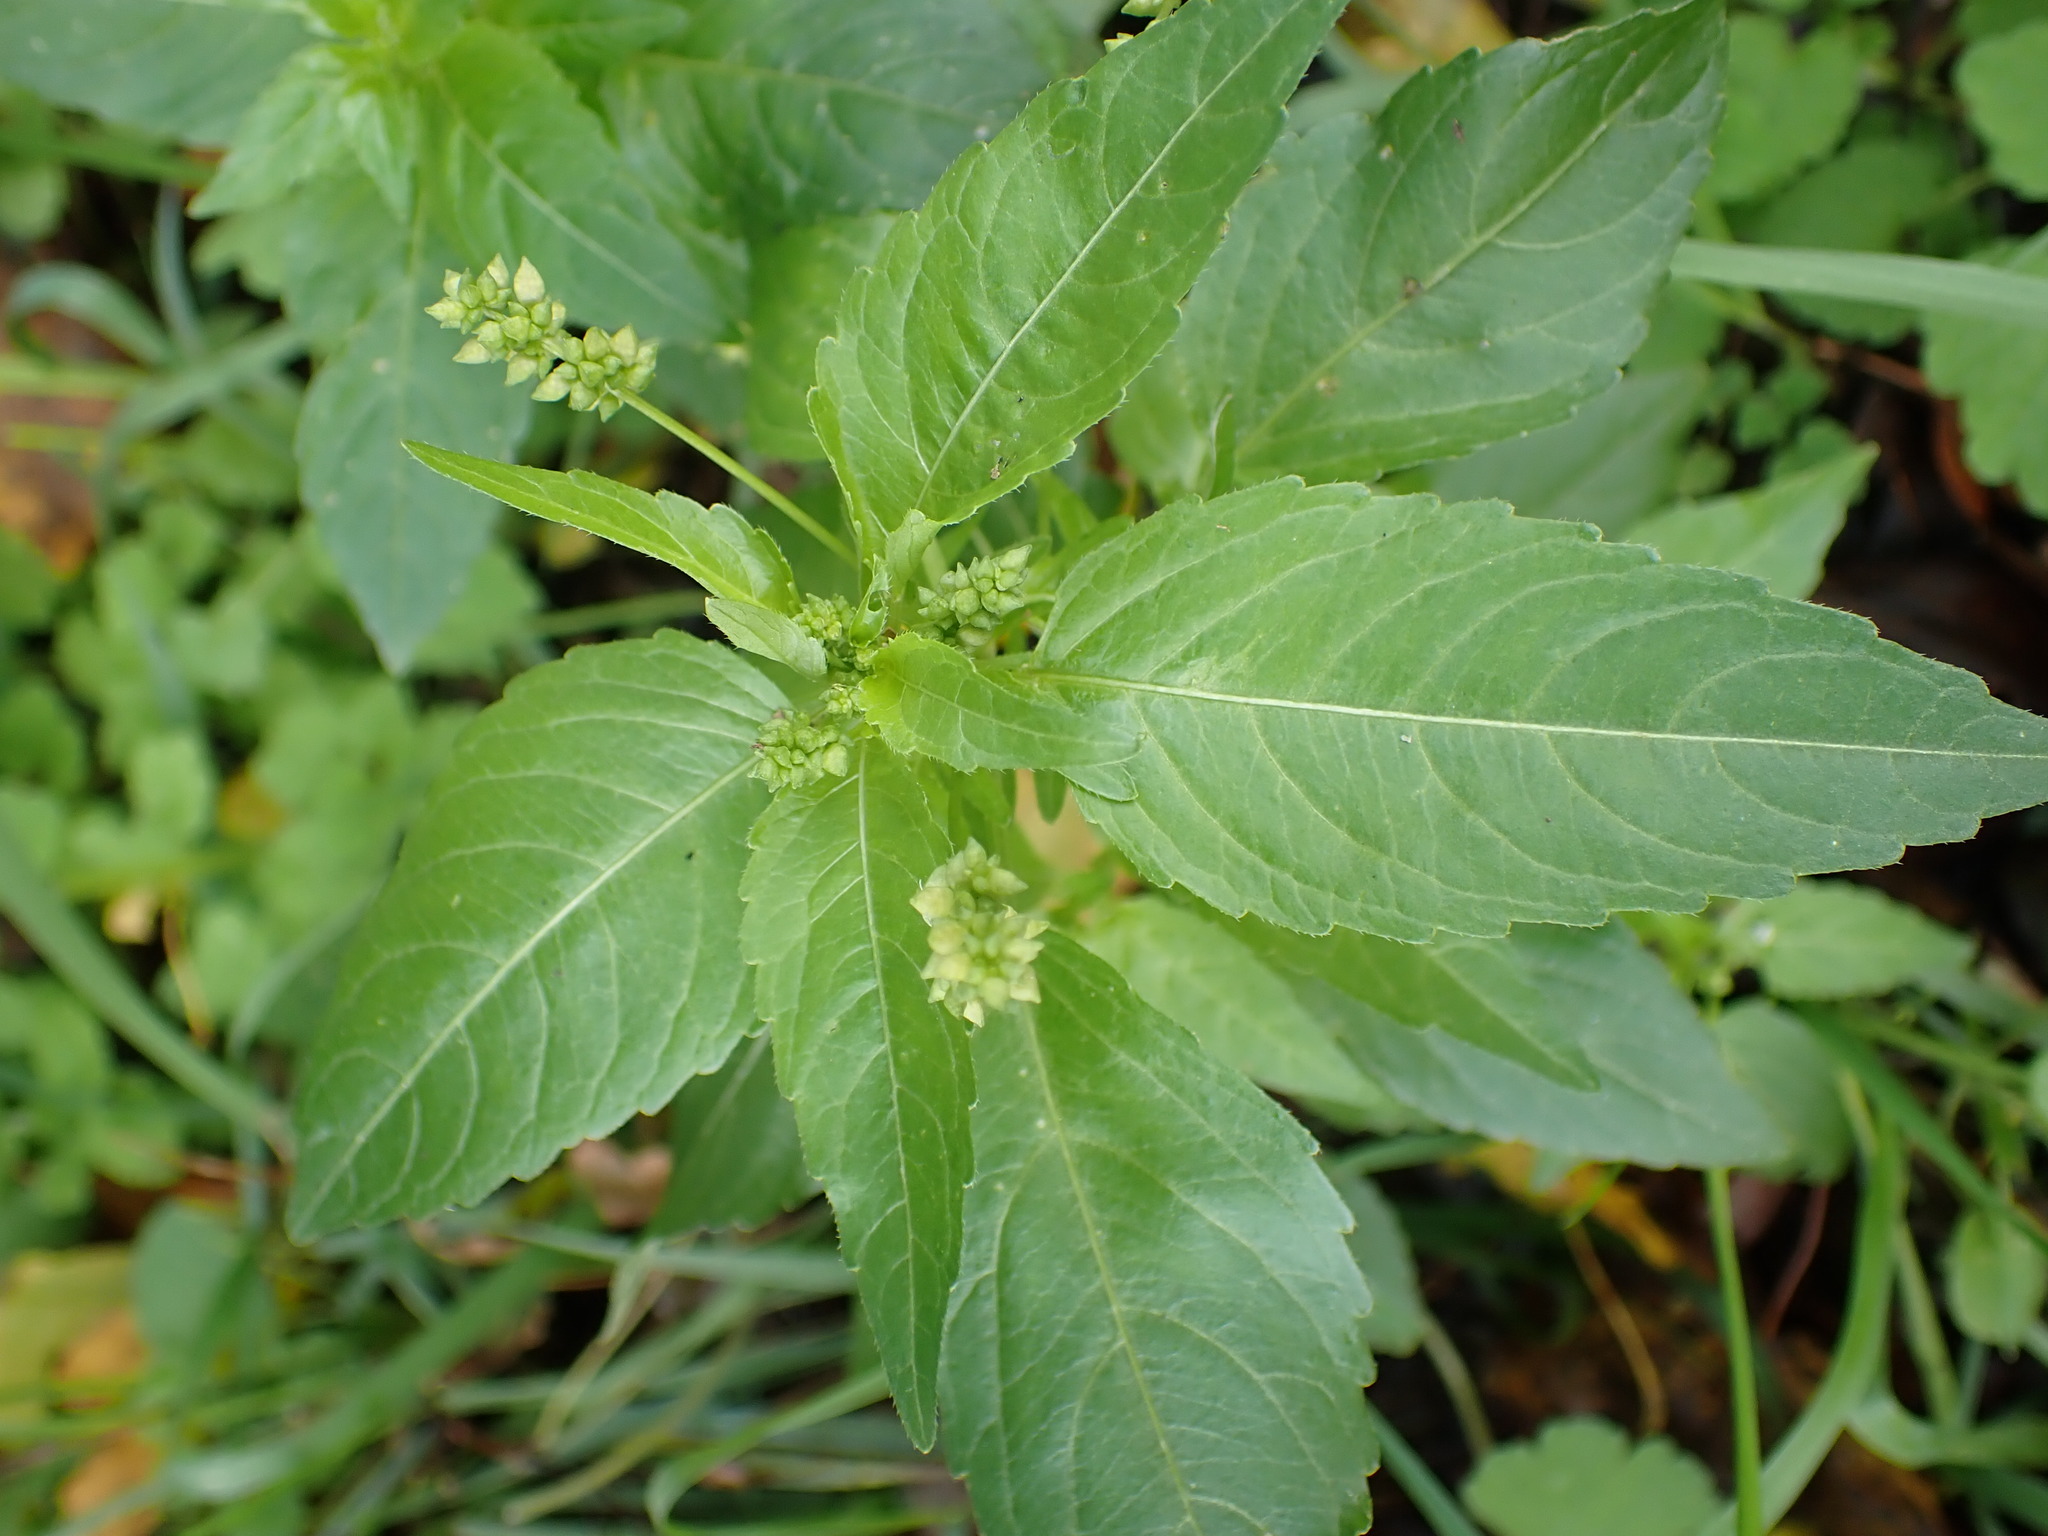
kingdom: Plantae
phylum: Tracheophyta
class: Magnoliopsida
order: Malpighiales
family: Euphorbiaceae
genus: Mercurialis
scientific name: Mercurialis annua
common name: Annual mercury
